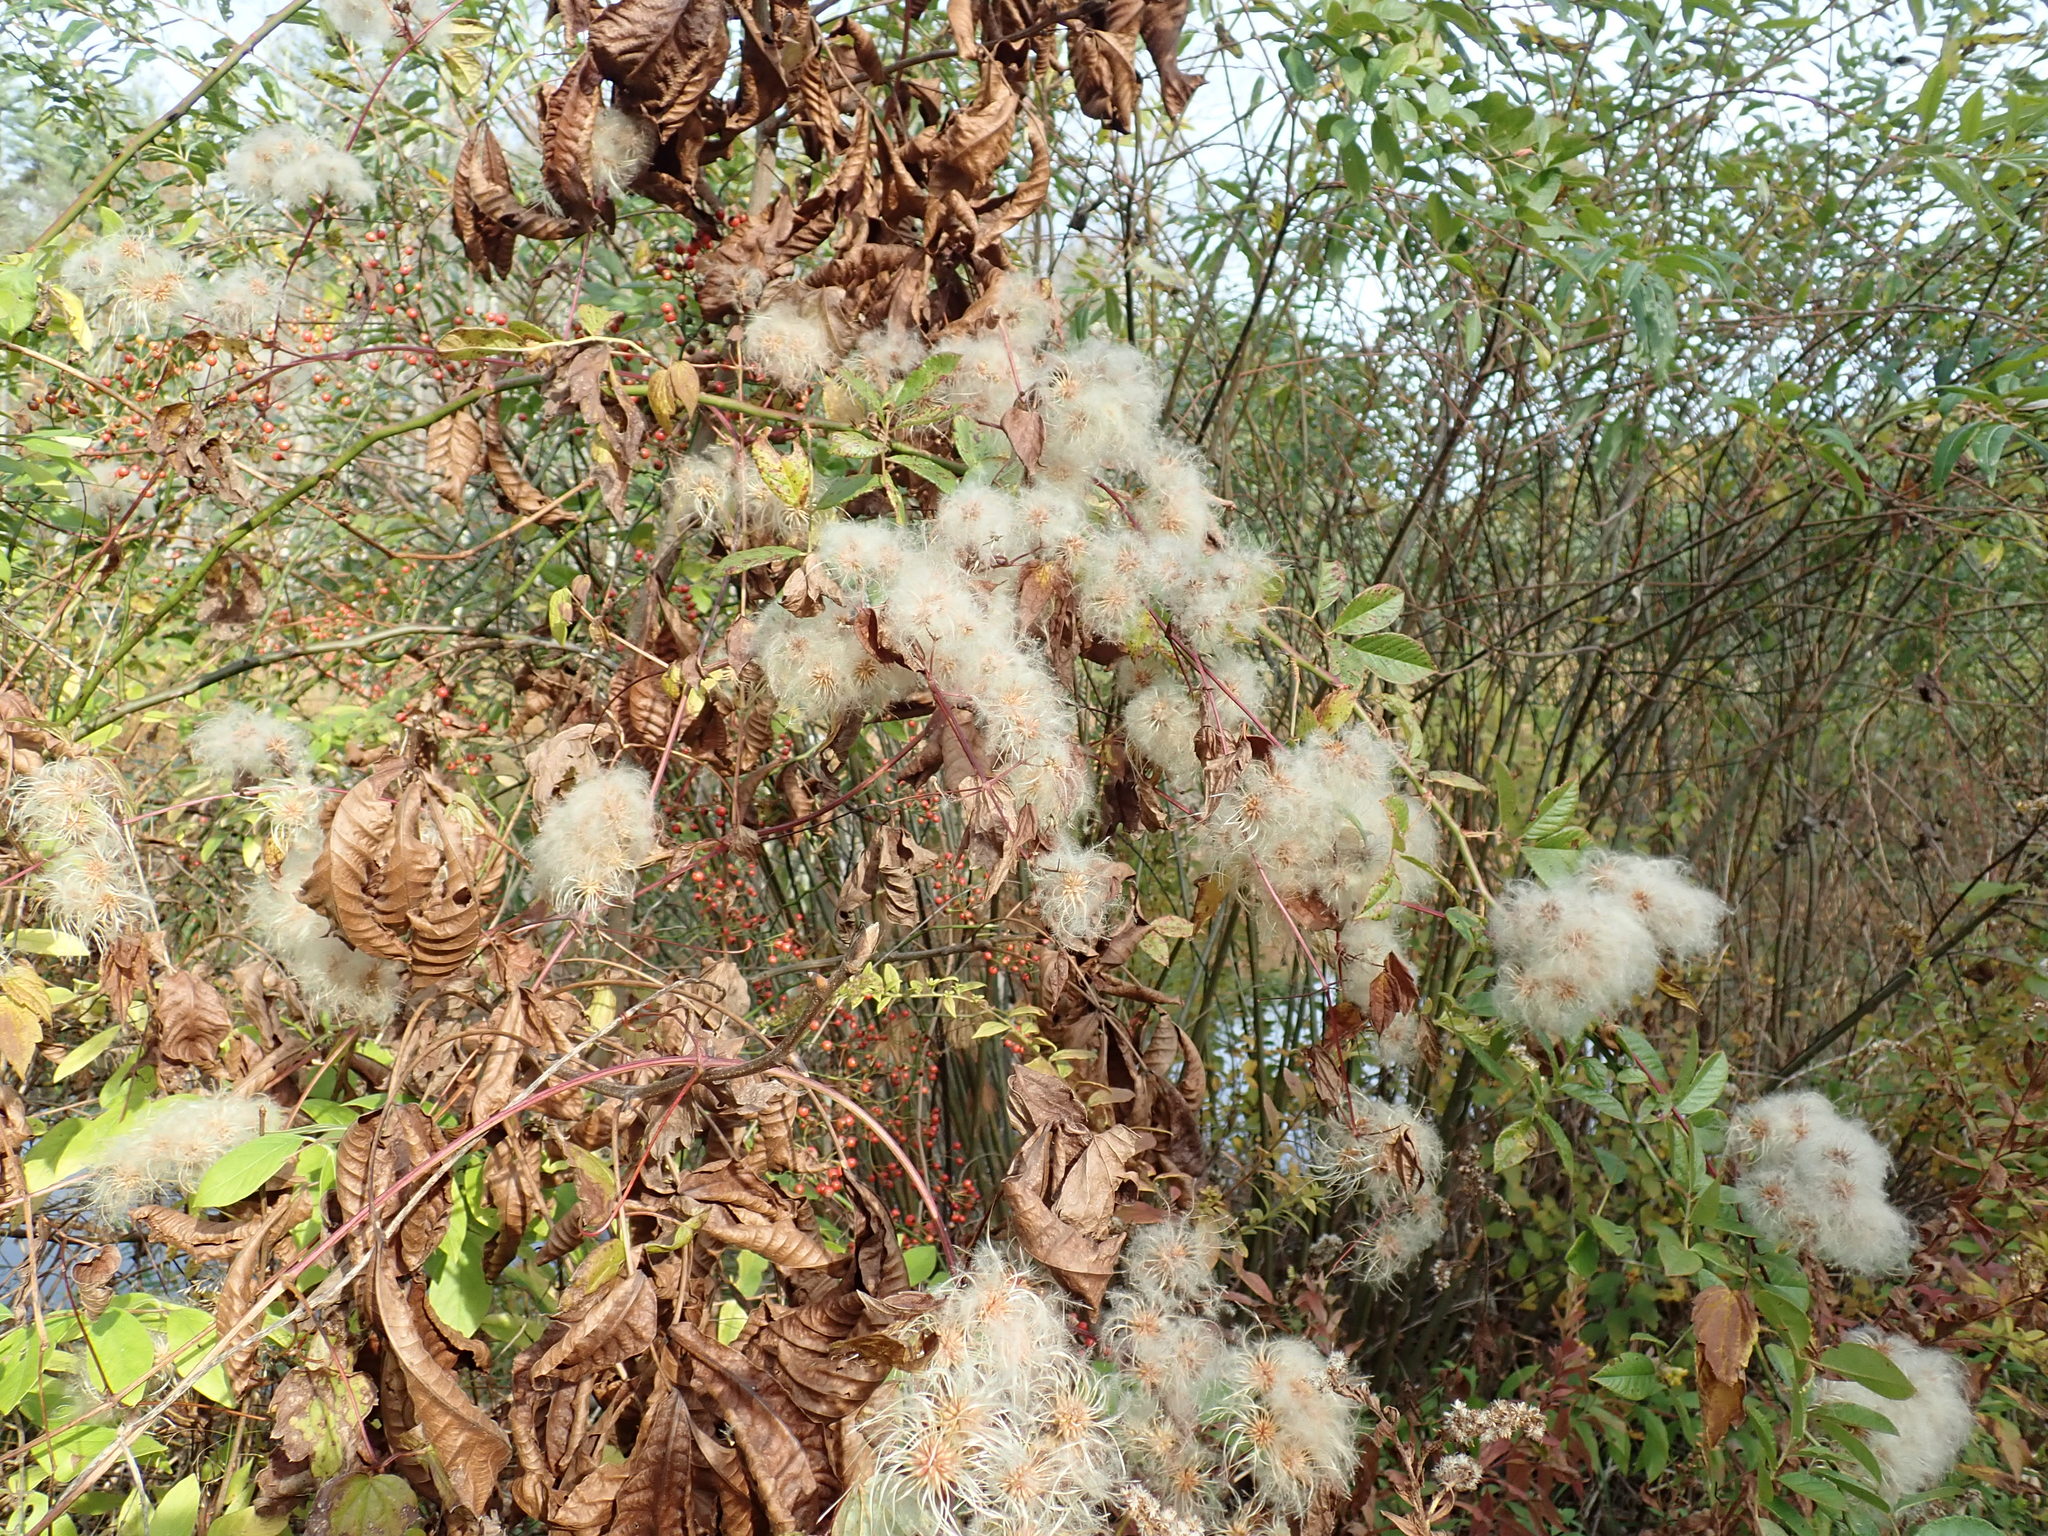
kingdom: Plantae
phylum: Tracheophyta
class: Magnoliopsida
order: Ranunculales
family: Ranunculaceae
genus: Clematis
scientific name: Clematis virginiana
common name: Virgin's-bower
